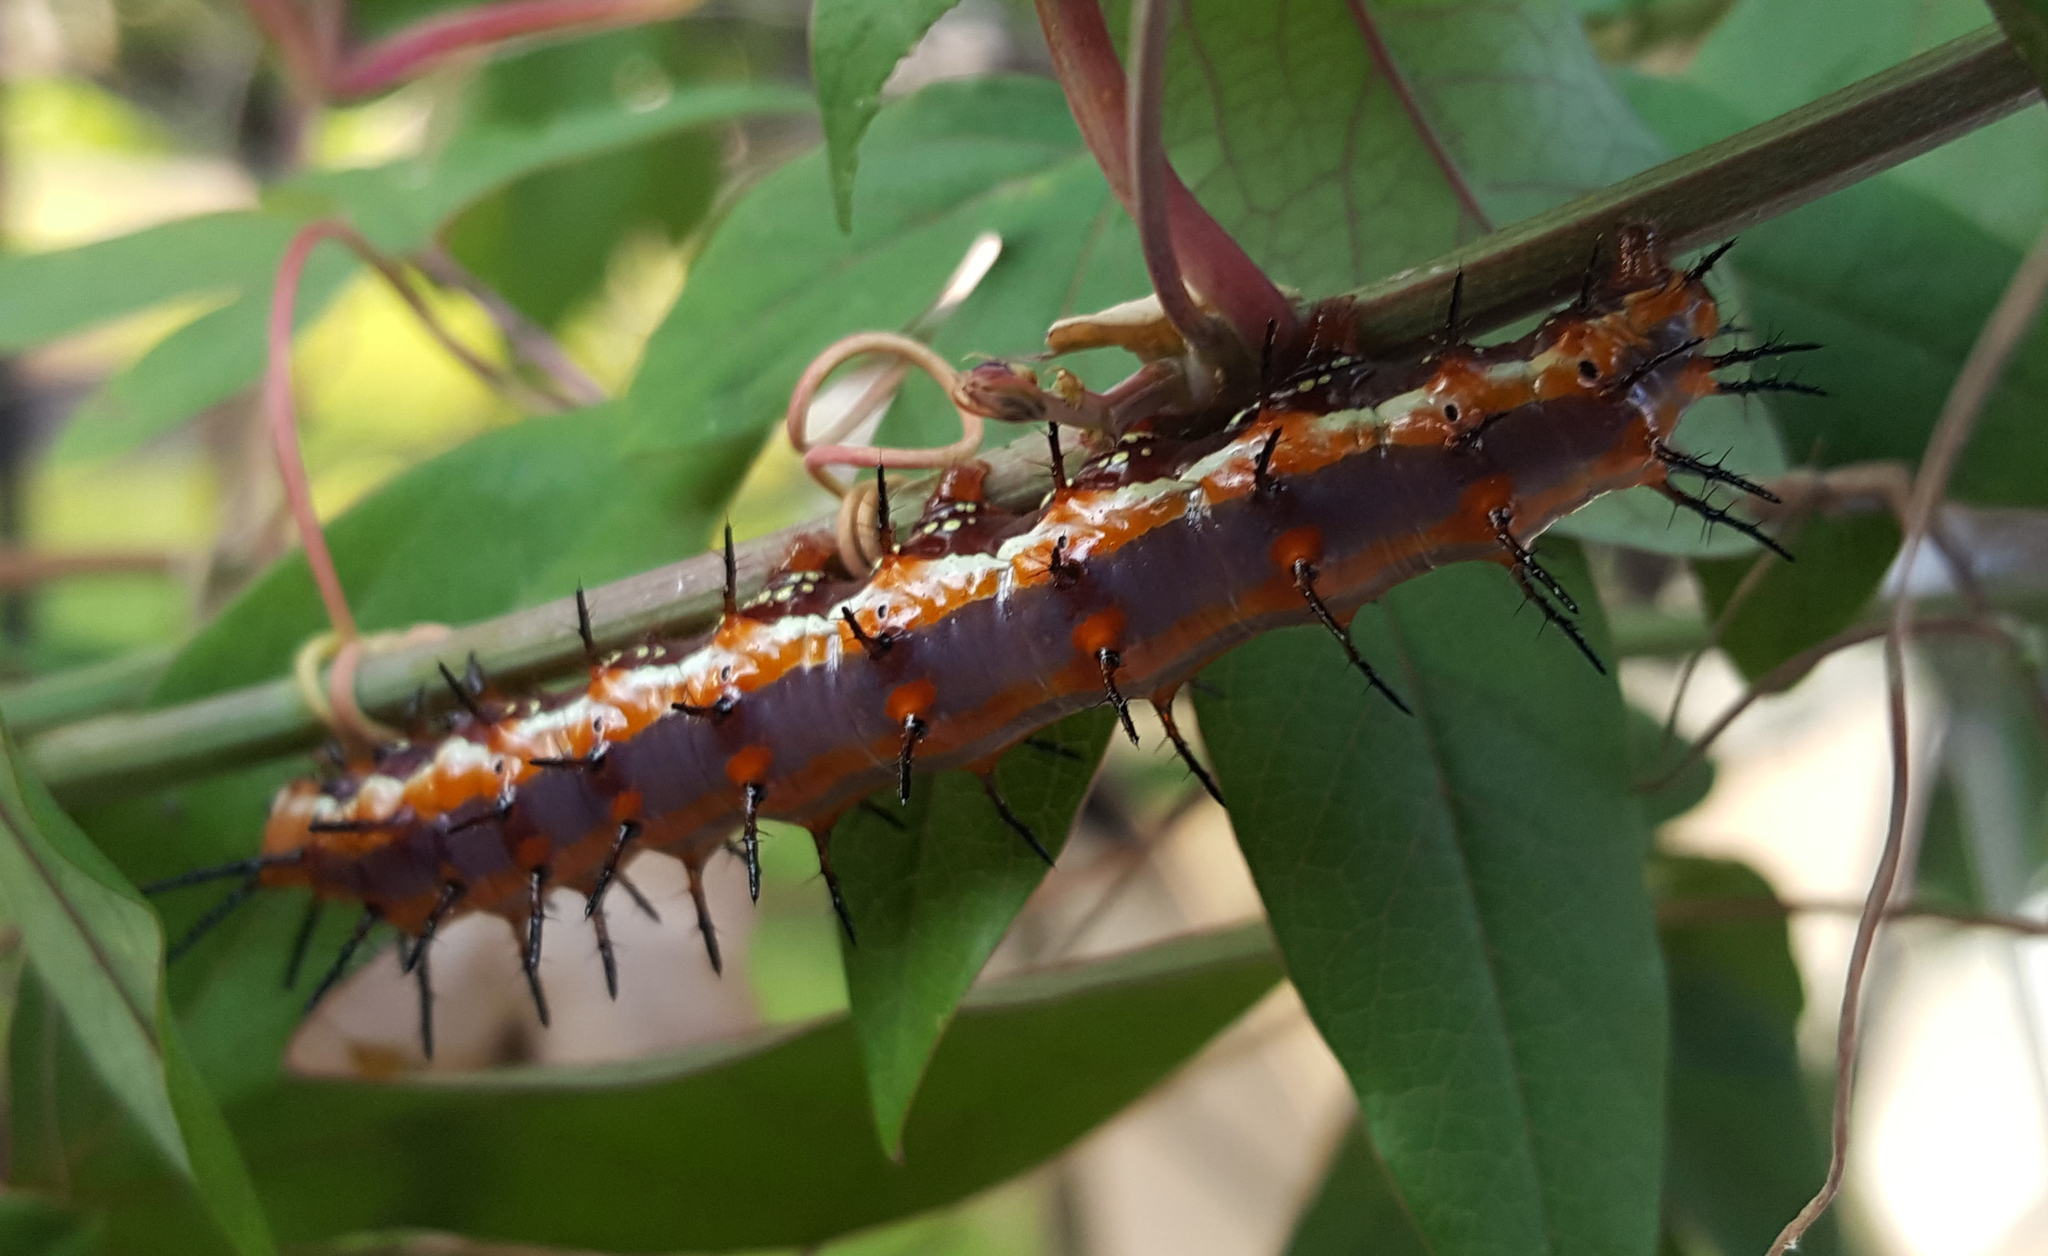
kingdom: Animalia
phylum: Arthropoda
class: Insecta
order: Lepidoptera
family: Nymphalidae
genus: Dione
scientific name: Dione vanillae
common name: Gulf fritillary
